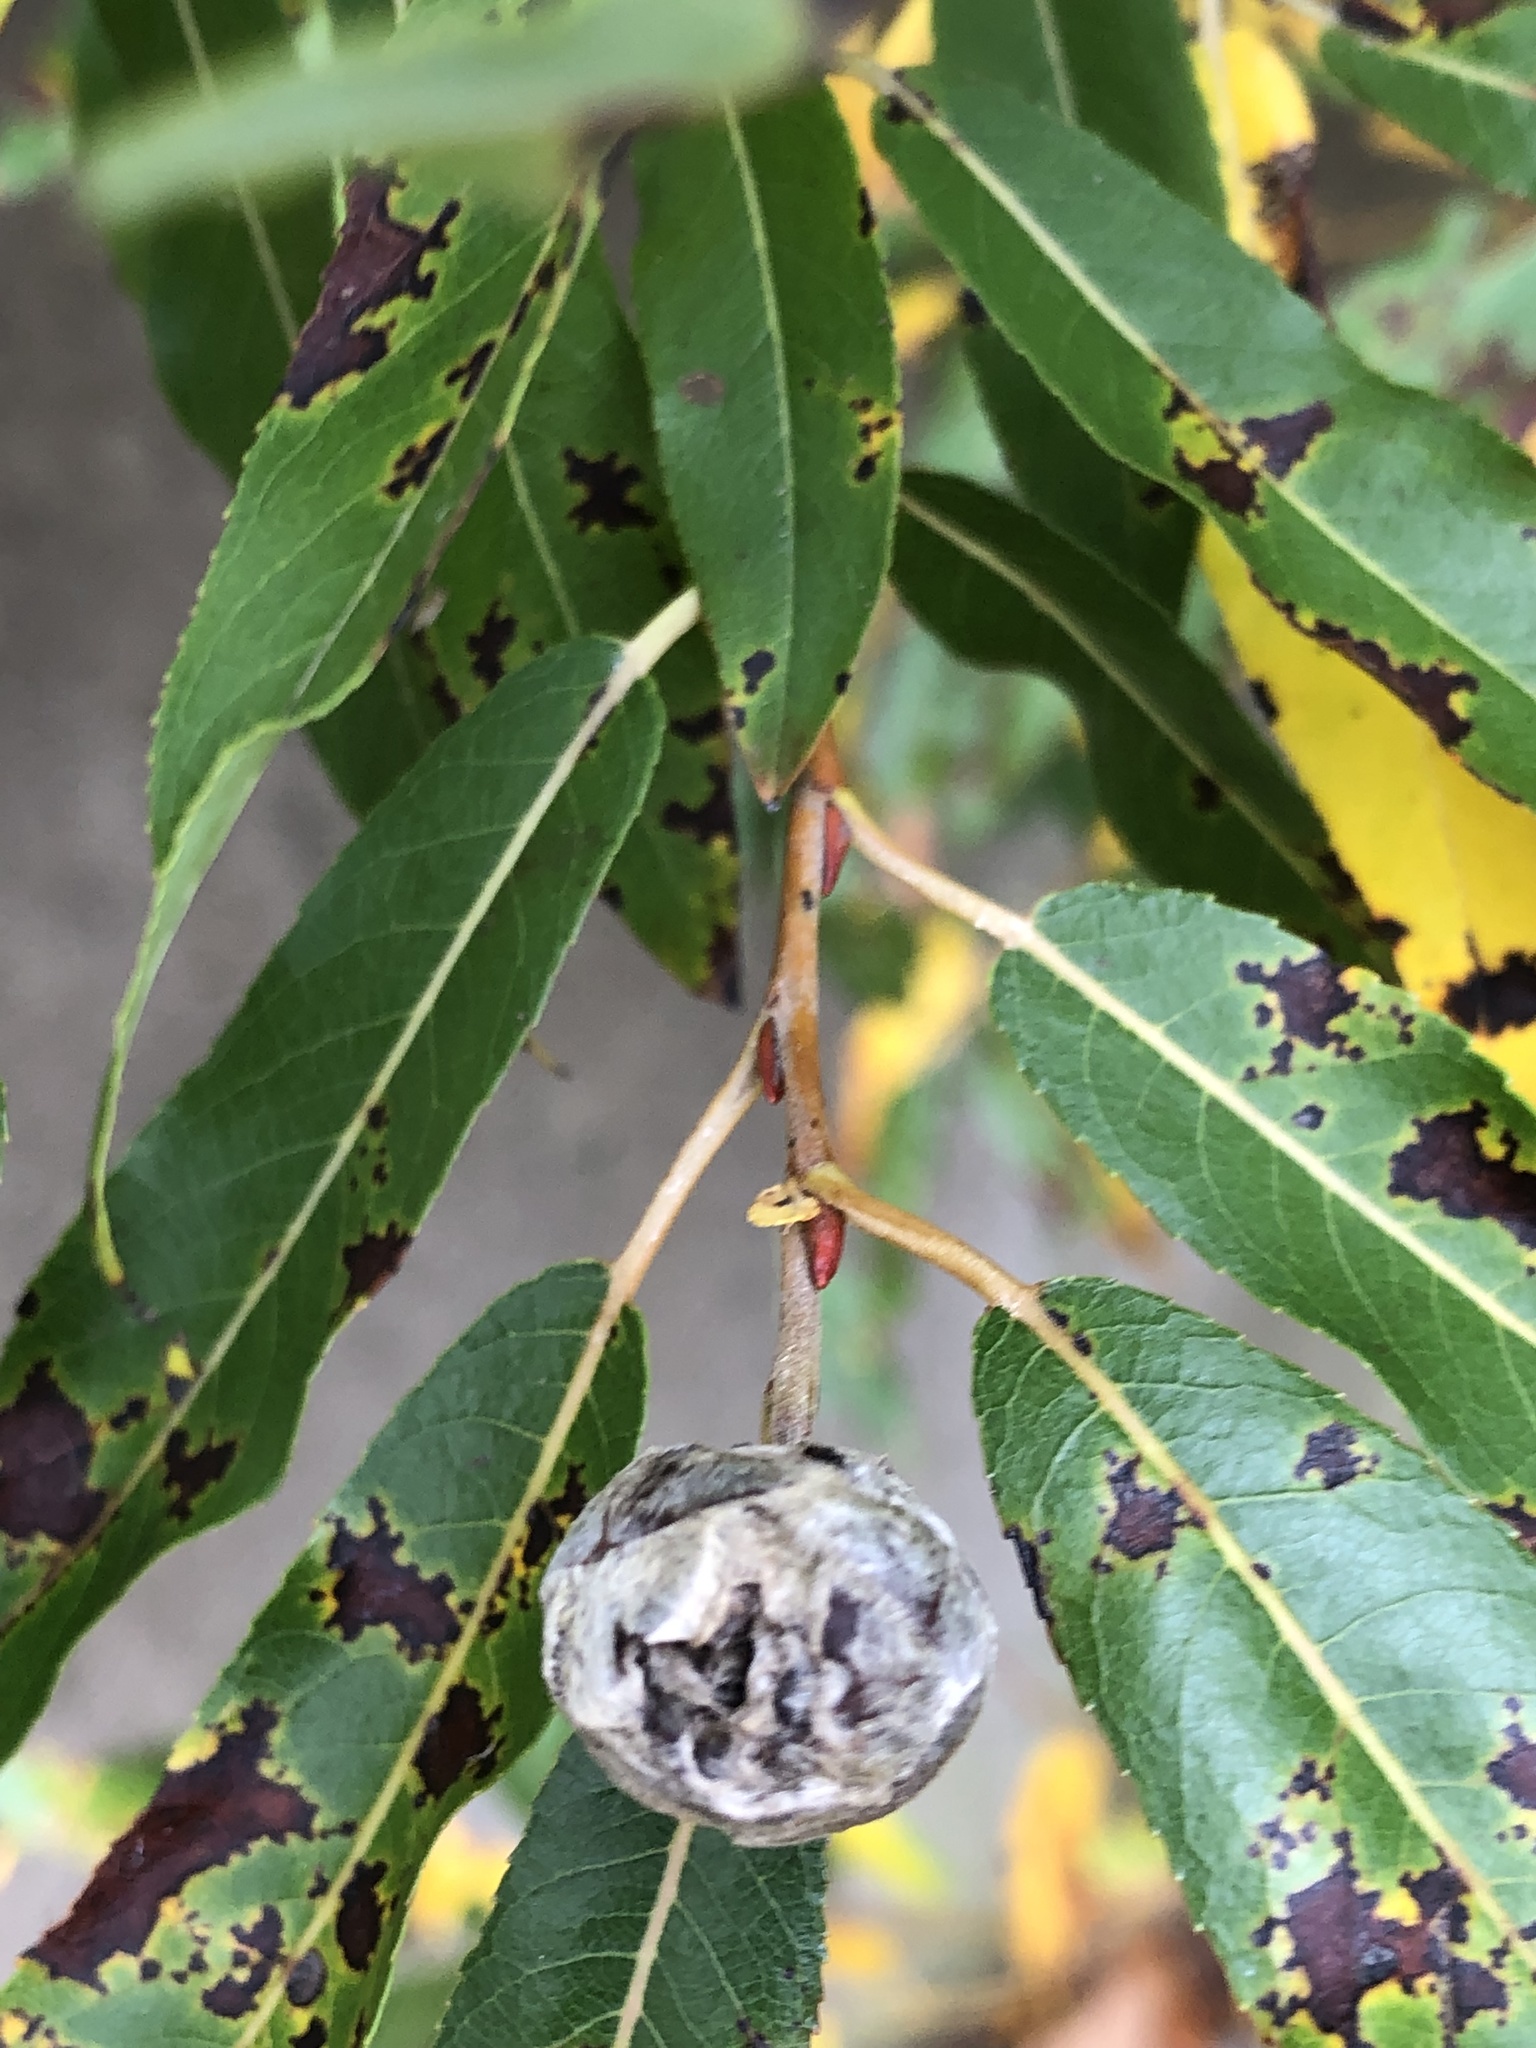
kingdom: Animalia
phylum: Arthropoda
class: Insecta
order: Diptera
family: Cecidomyiidae
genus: Rabdophaga
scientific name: Rabdophaga strobiloides
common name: Willow pinecone gall midge
